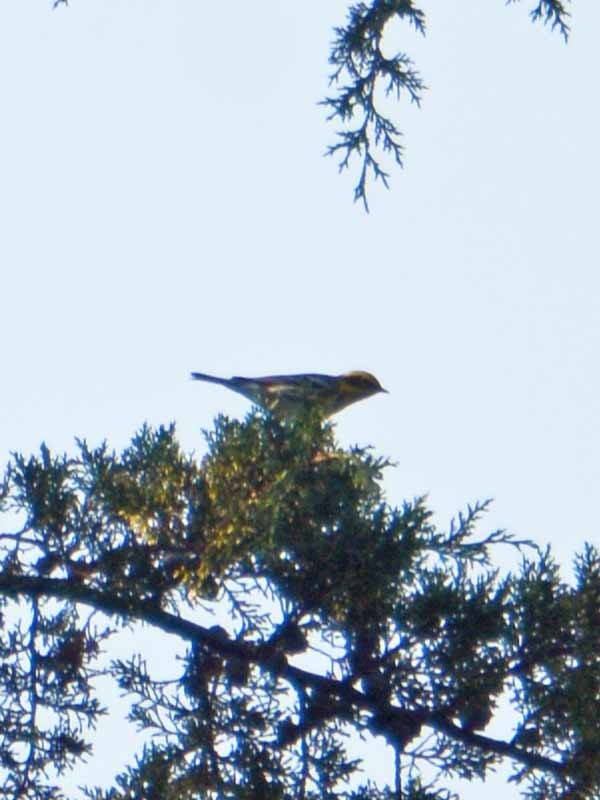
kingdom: Animalia
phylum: Chordata
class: Aves
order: Passeriformes
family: Parulidae
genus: Setophaga
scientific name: Setophaga townsendi
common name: Townsend's warbler
